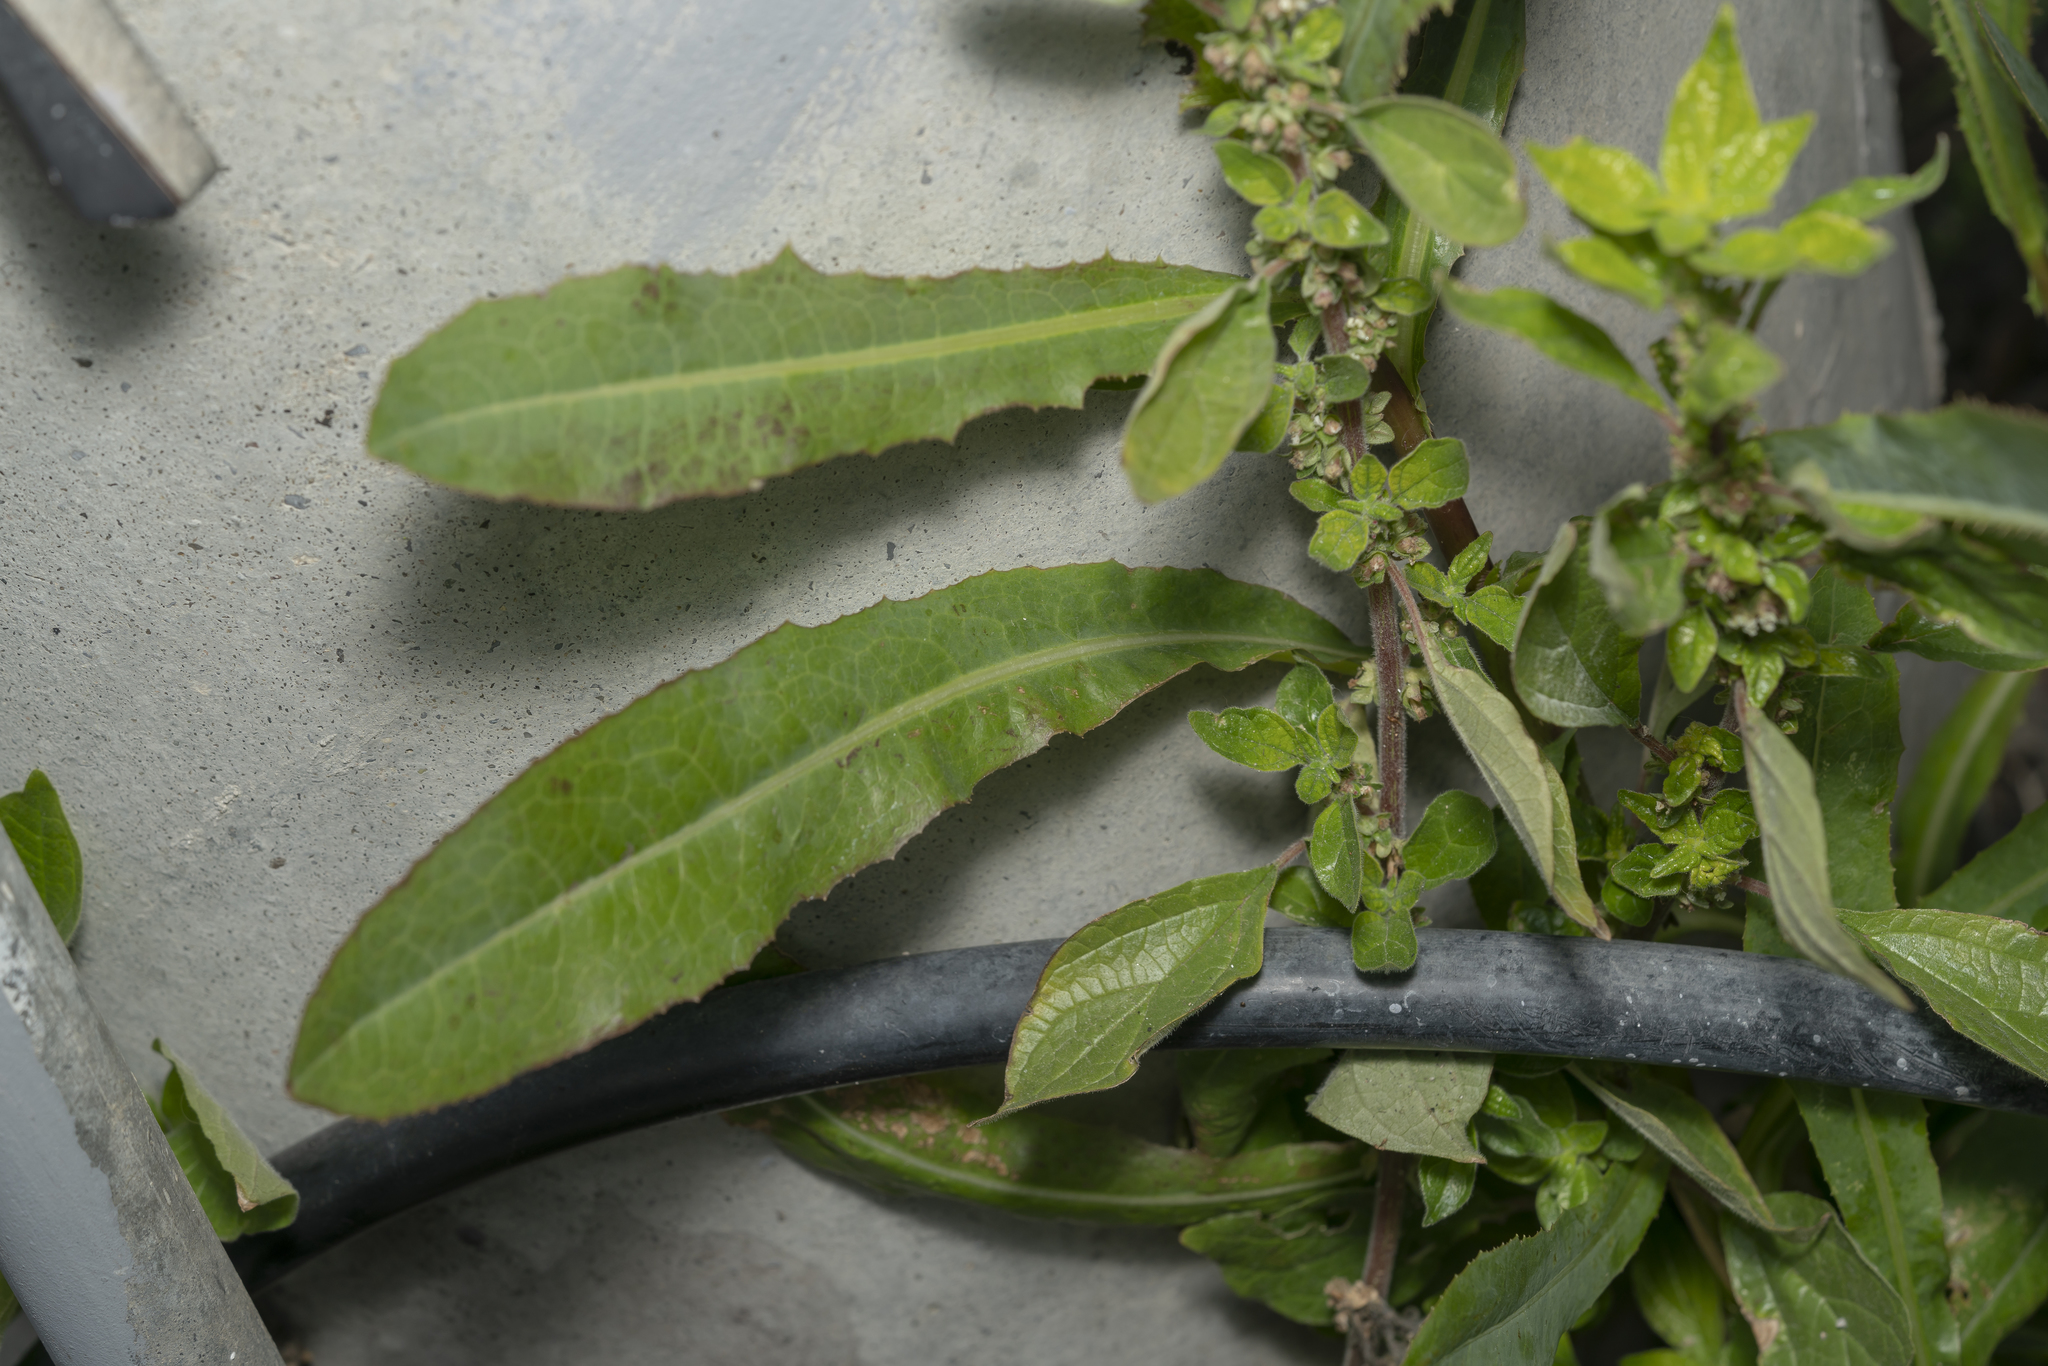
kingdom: Plantae
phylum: Tracheophyta
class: Magnoliopsida
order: Rosales
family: Urticaceae
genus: Parietaria
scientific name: Parietaria
